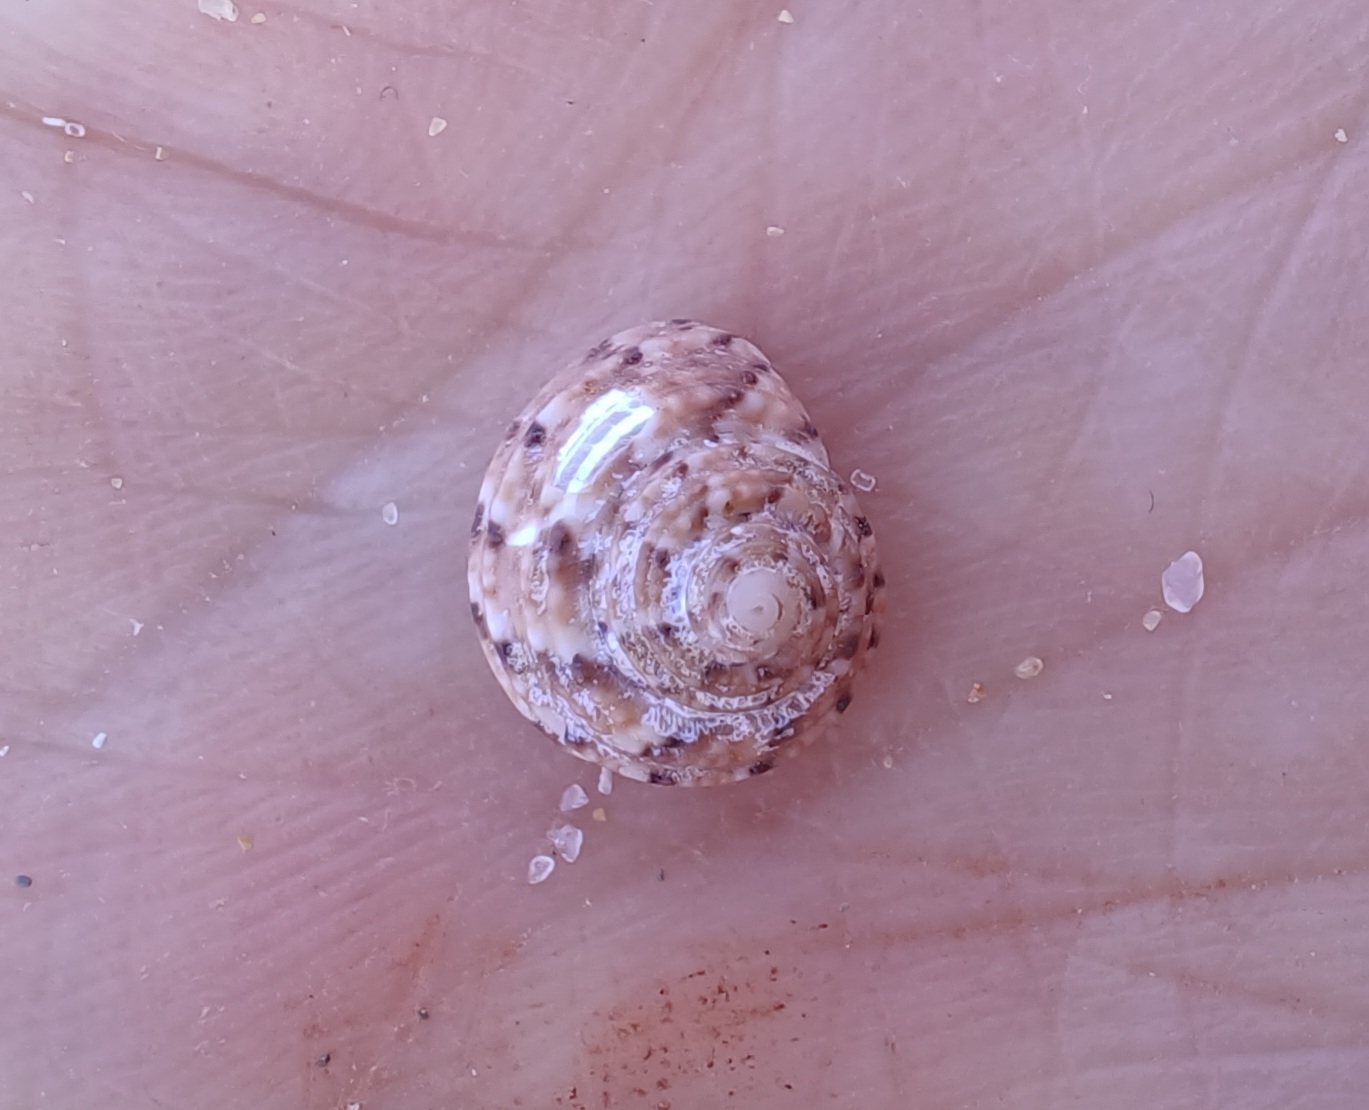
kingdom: Animalia
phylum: Mollusca
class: Gastropoda
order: Trochida
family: Trochidae
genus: Clanculus
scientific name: Clanculus plebejus
